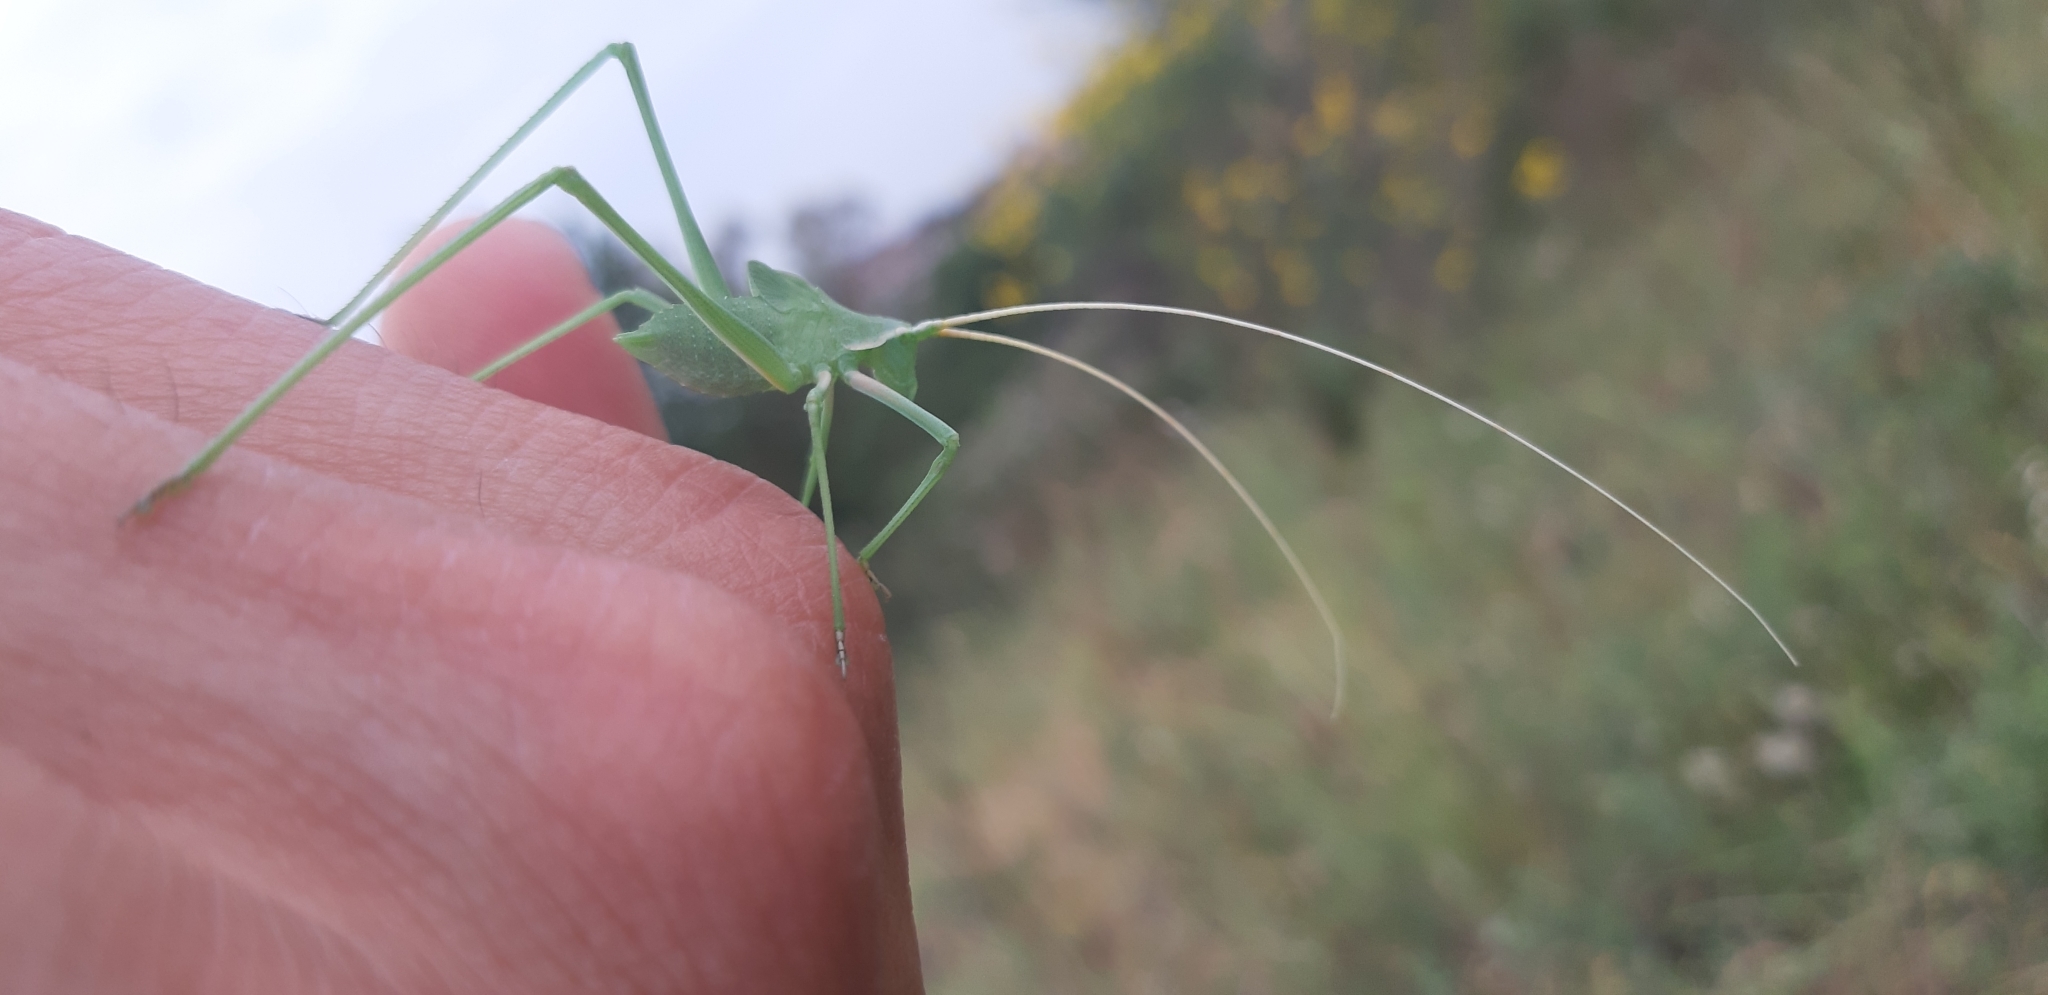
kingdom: Animalia
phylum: Arthropoda
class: Insecta
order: Orthoptera
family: Tettigoniidae
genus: Acrometopa
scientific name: Acrometopa italica
